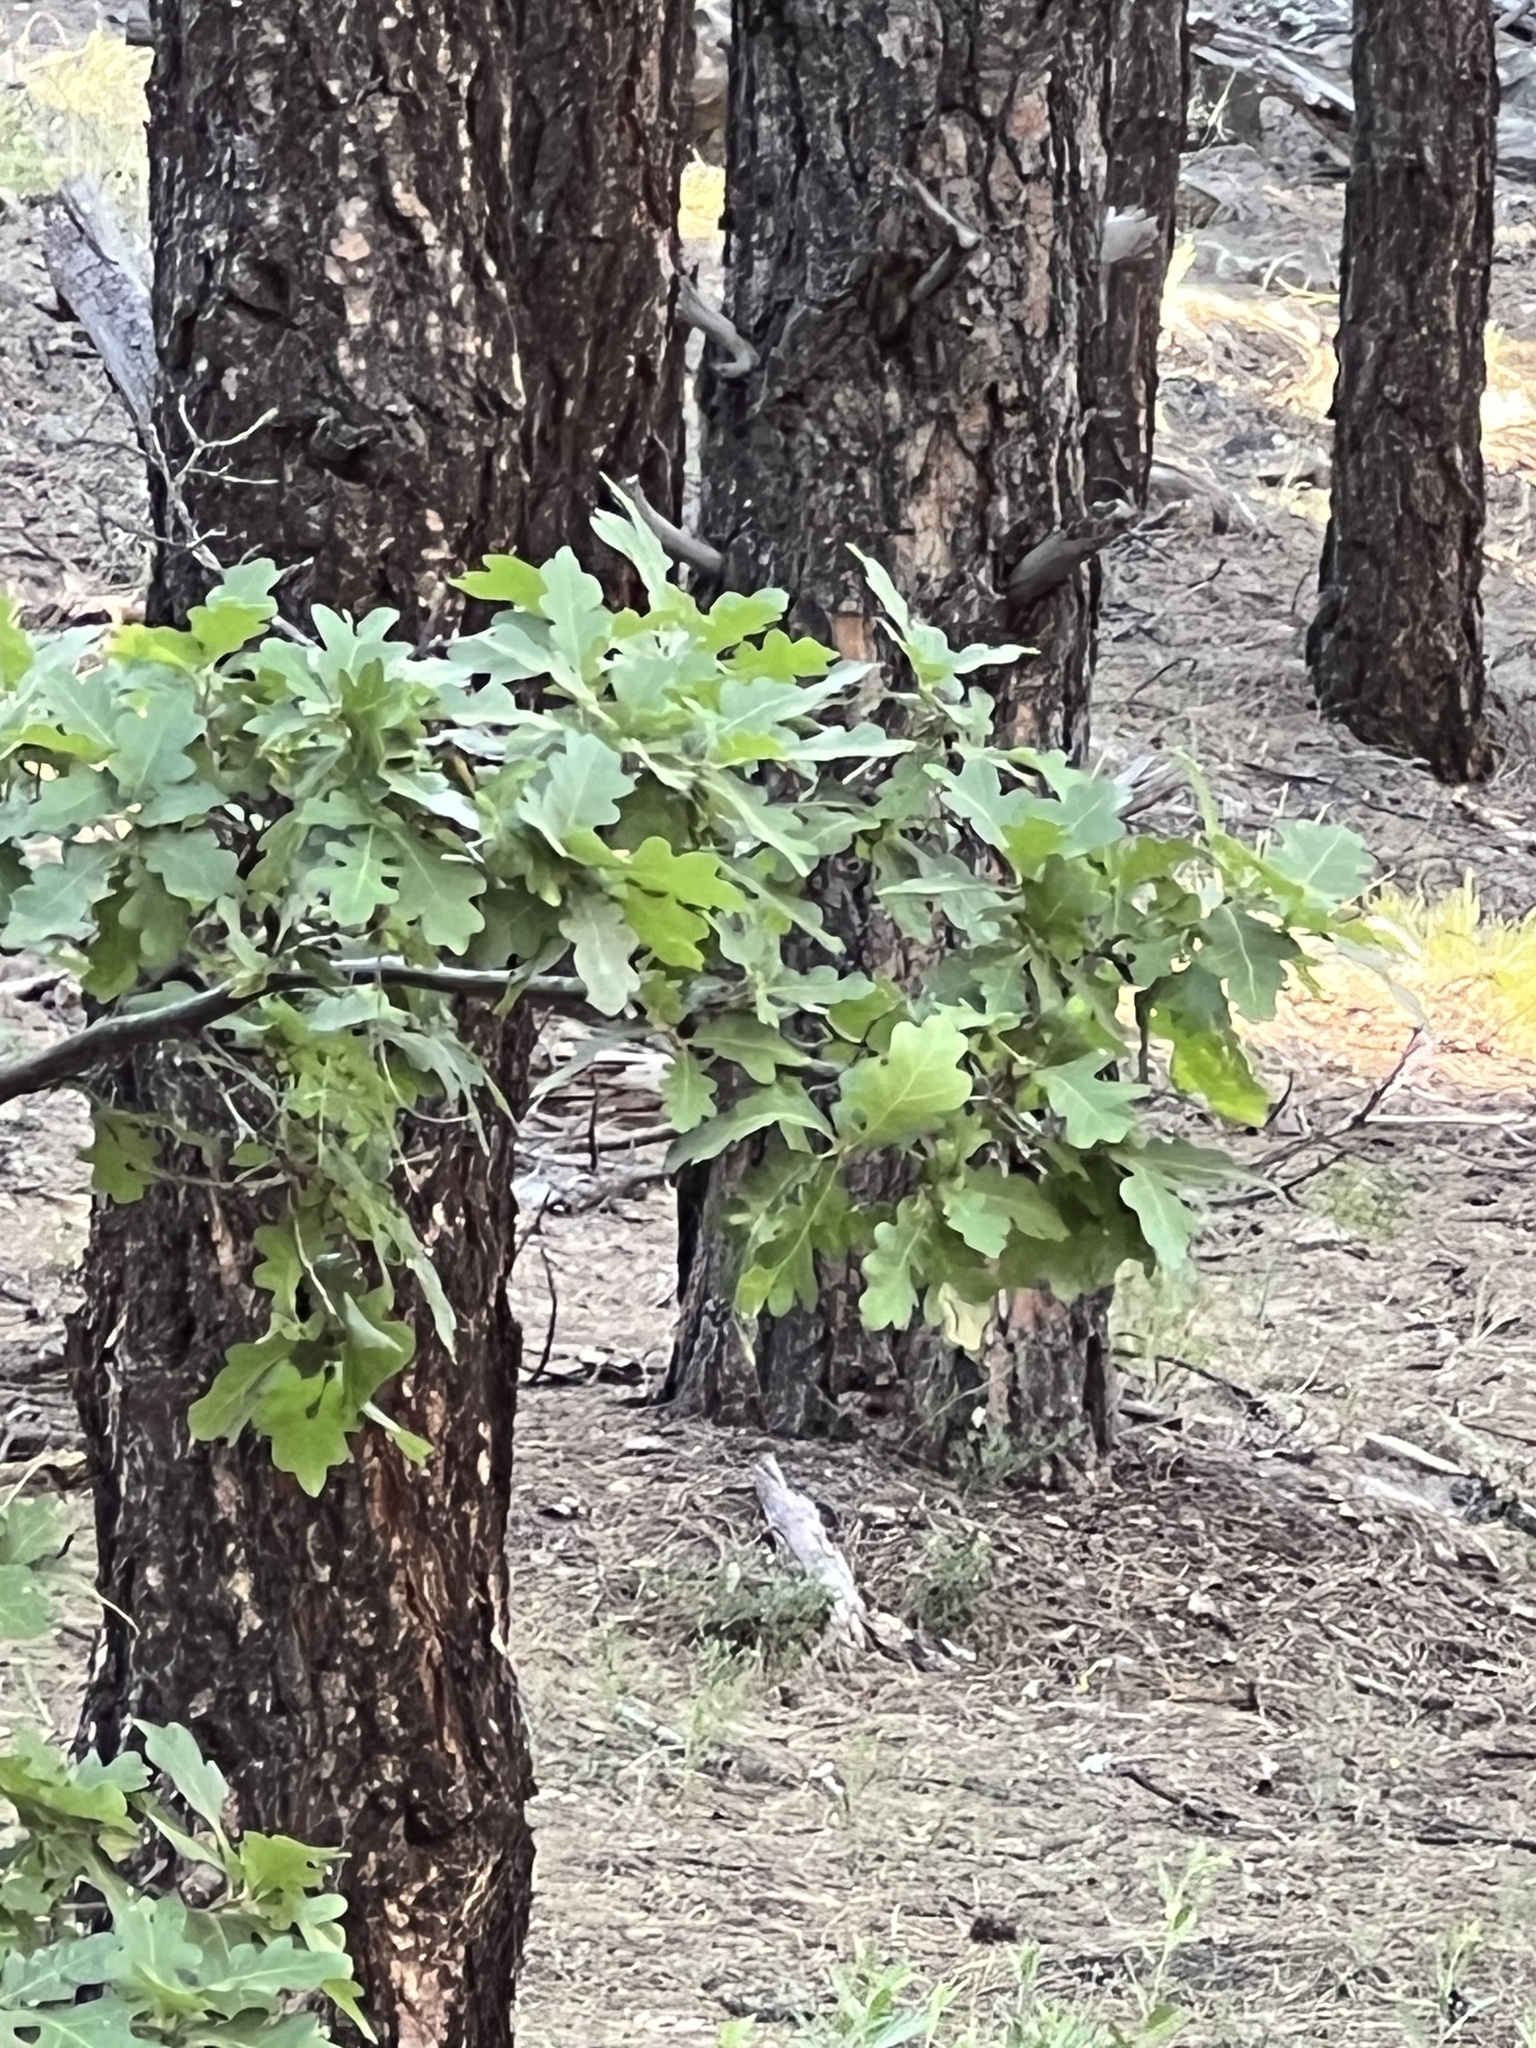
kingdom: Plantae
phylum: Tracheophyta
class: Magnoliopsida
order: Fagales
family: Fagaceae
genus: Quercus
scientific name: Quercus gambelii
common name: Gambel oak
